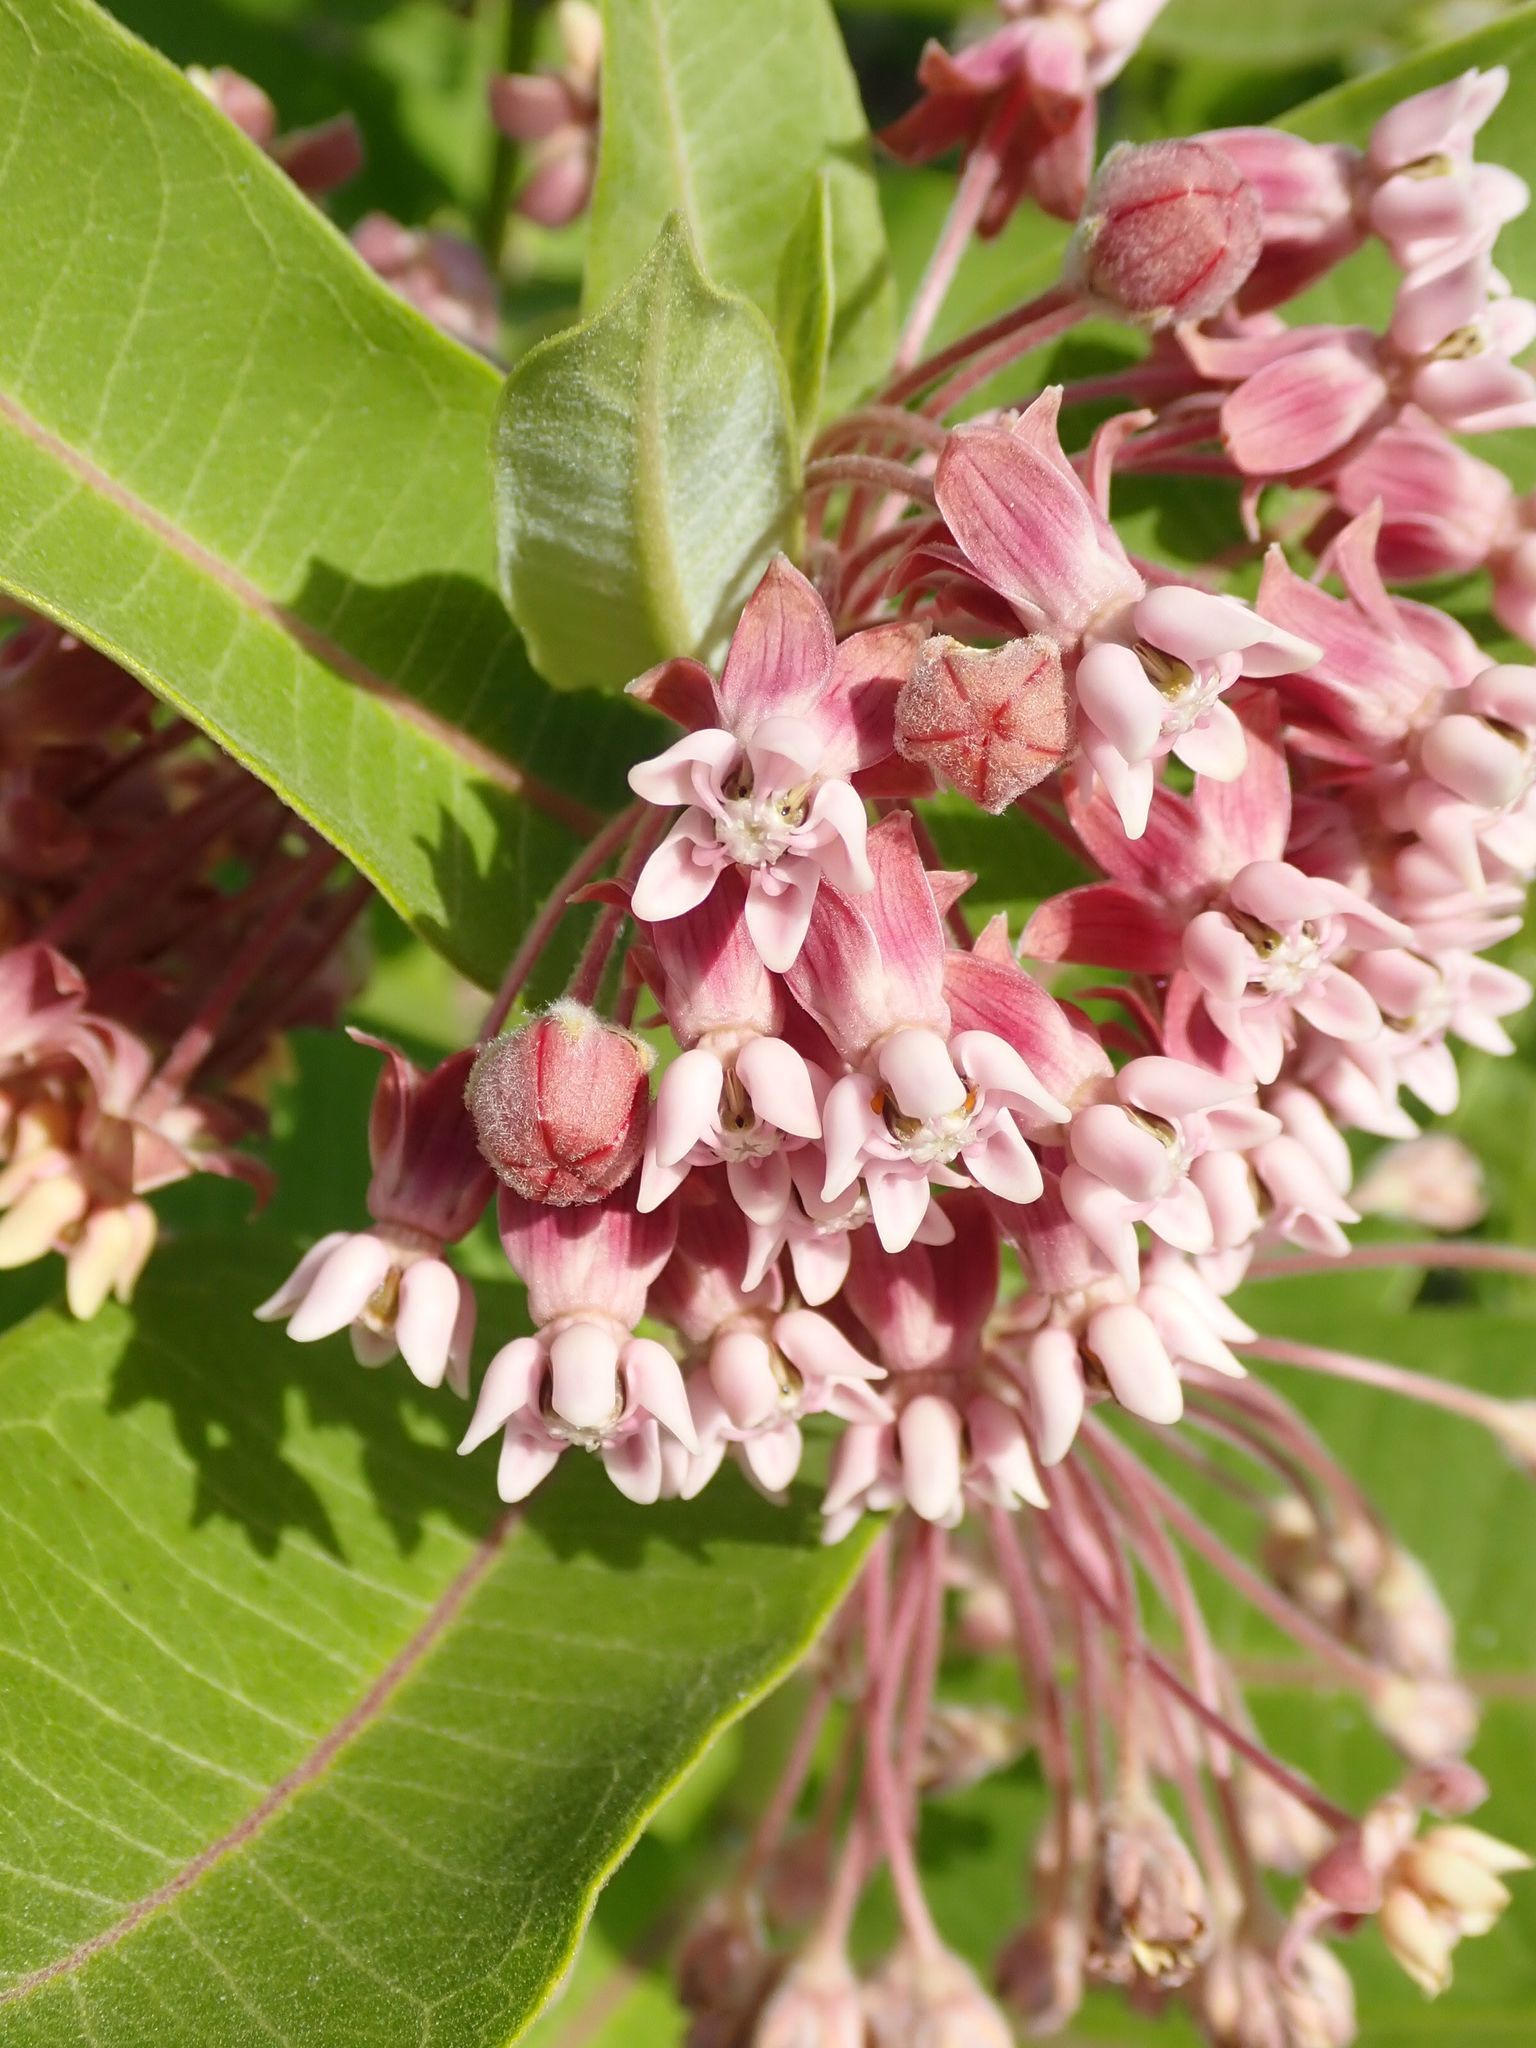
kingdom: Plantae
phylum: Tracheophyta
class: Magnoliopsida
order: Gentianales
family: Apocynaceae
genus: Asclepias
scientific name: Asclepias syriaca
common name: Common milkweed
